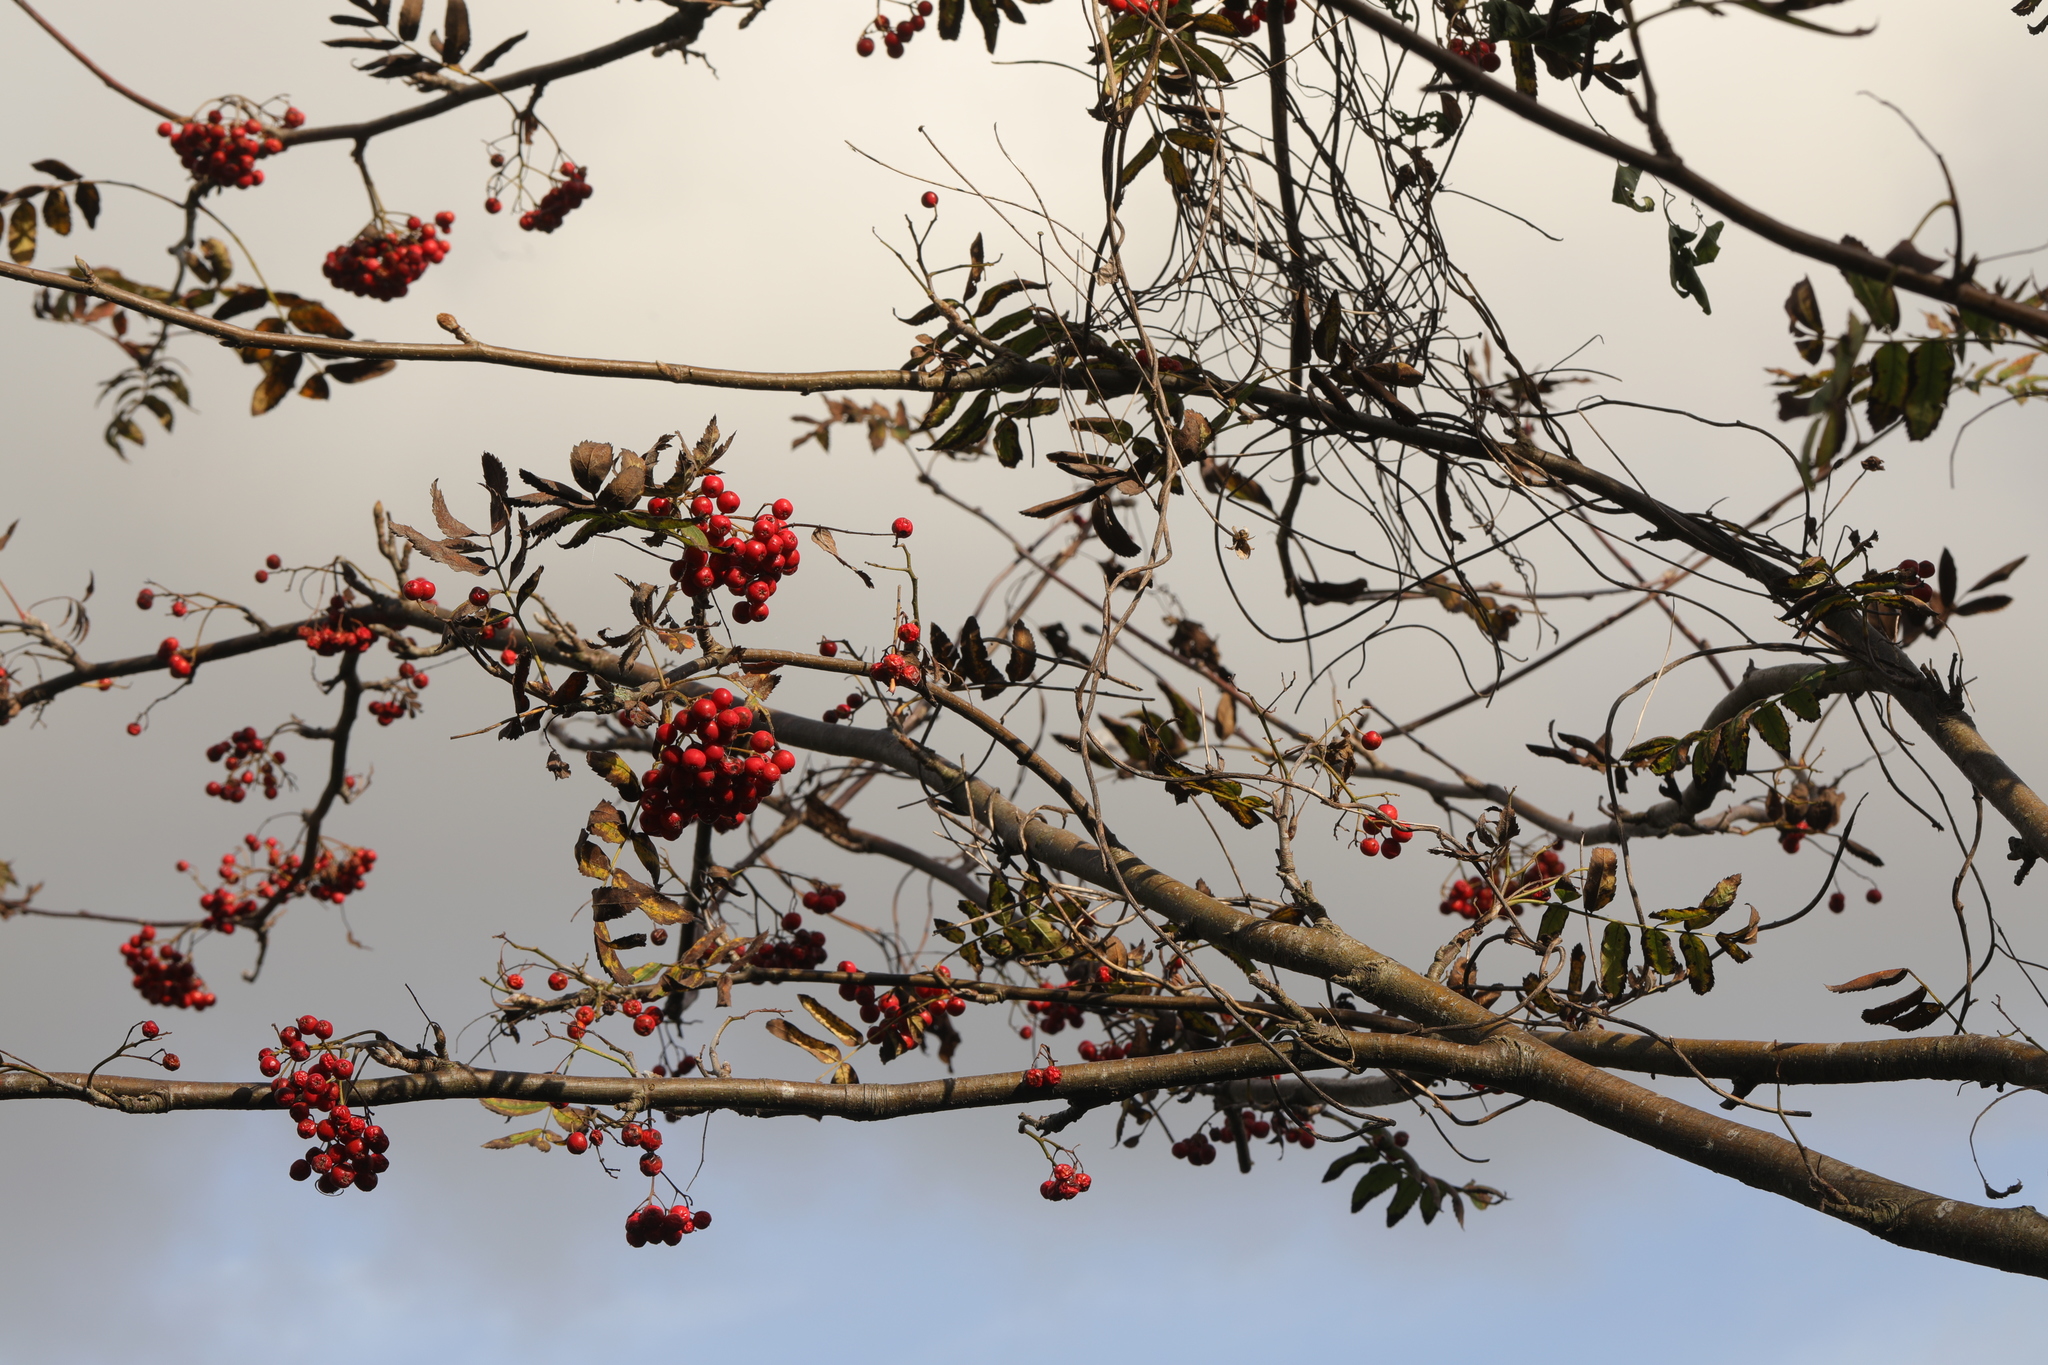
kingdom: Plantae
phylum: Tracheophyta
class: Magnoliopsida
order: Rosales
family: Rosaceae
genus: Sorbus
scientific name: Sorbus aucuparia
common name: Rowan
